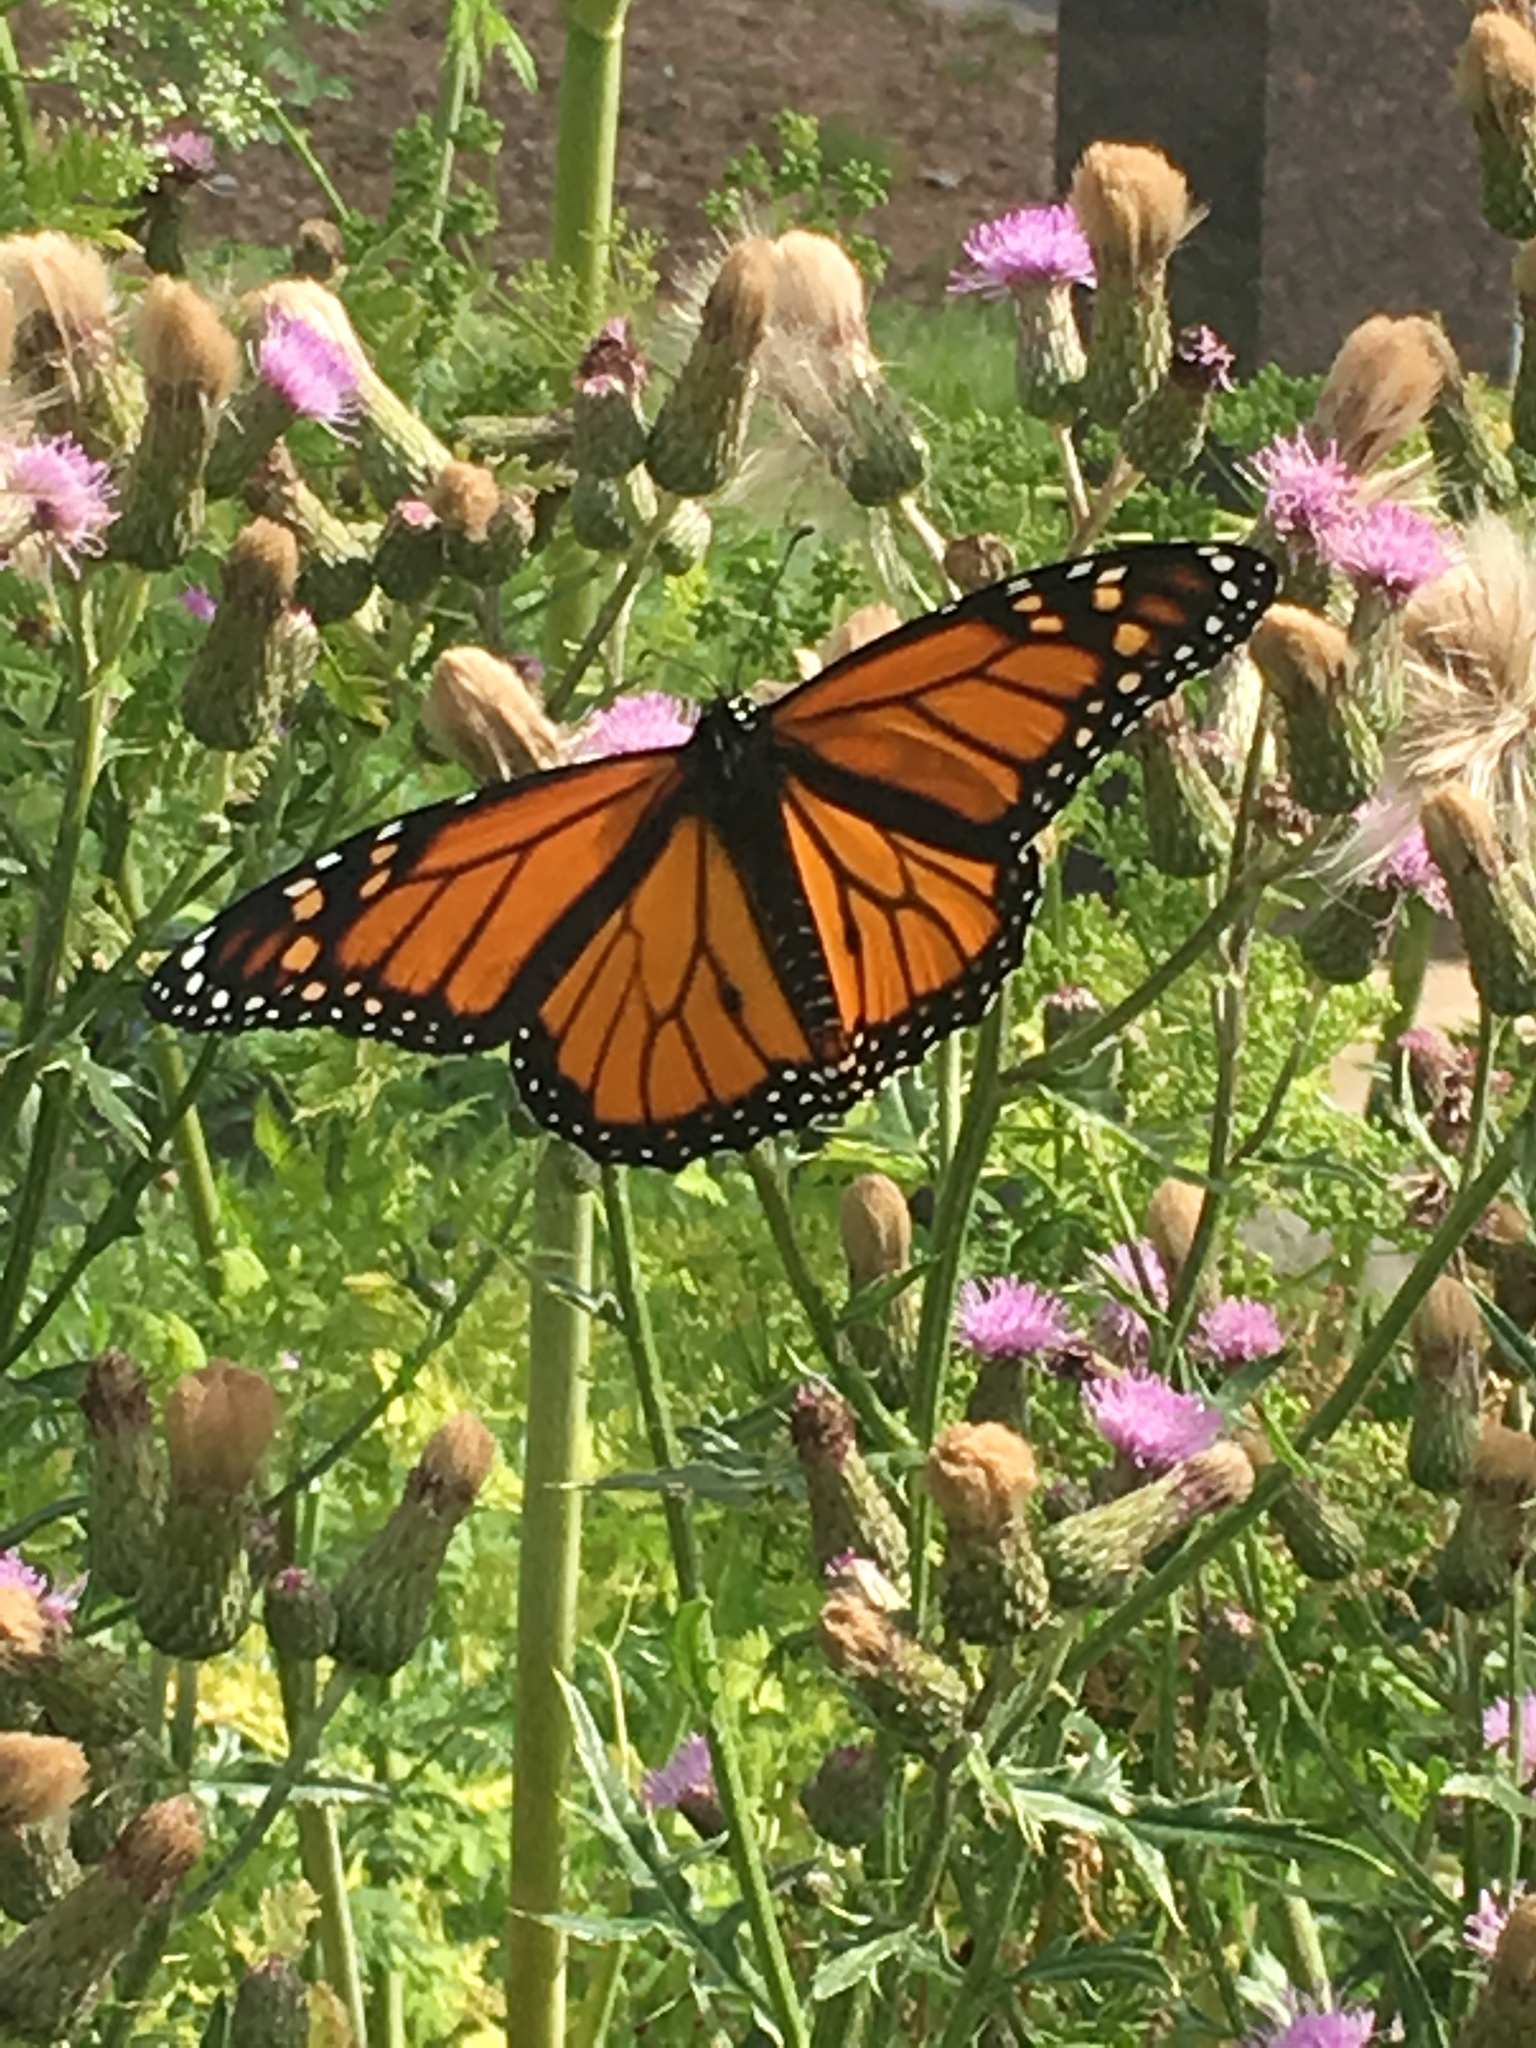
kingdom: Animalia
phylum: Arthropoda
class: Insecta
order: Lepidoptera
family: Nymphalidae
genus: Danaus
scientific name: Danaus plexippus
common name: Monarch
